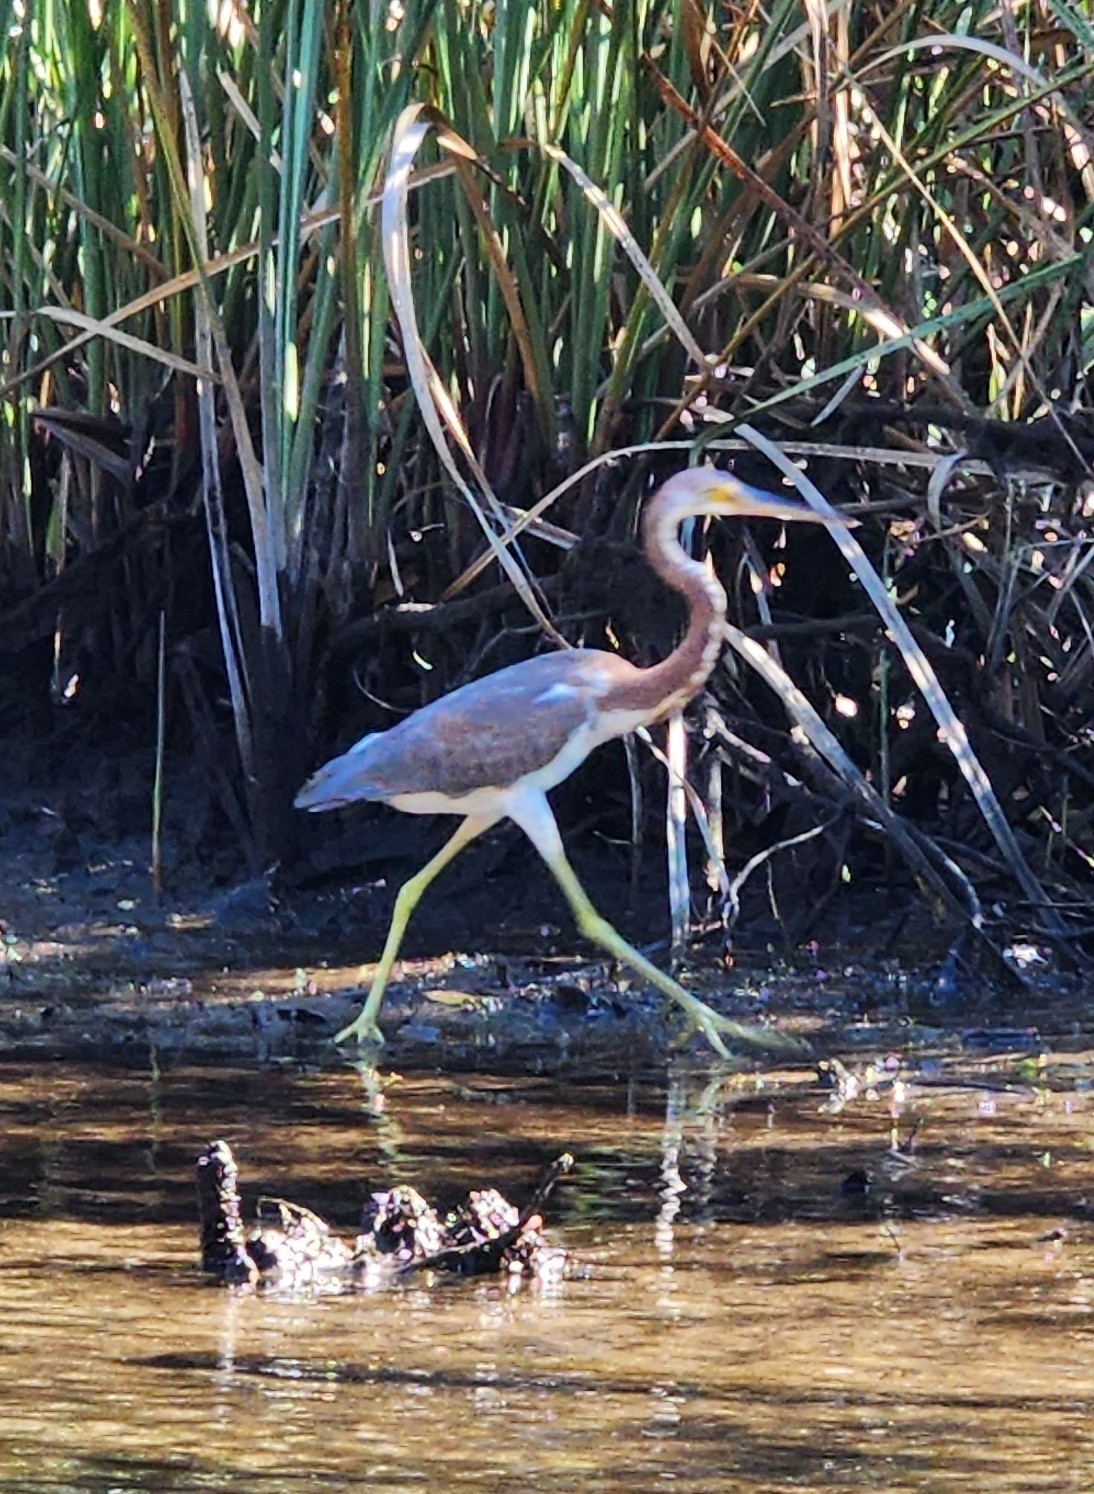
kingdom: Animalia
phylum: Chordata
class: Aves
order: Pelecaniformes
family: Ardeidae
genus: Egretta
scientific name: Egretta tricolor
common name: Tricolored heron
